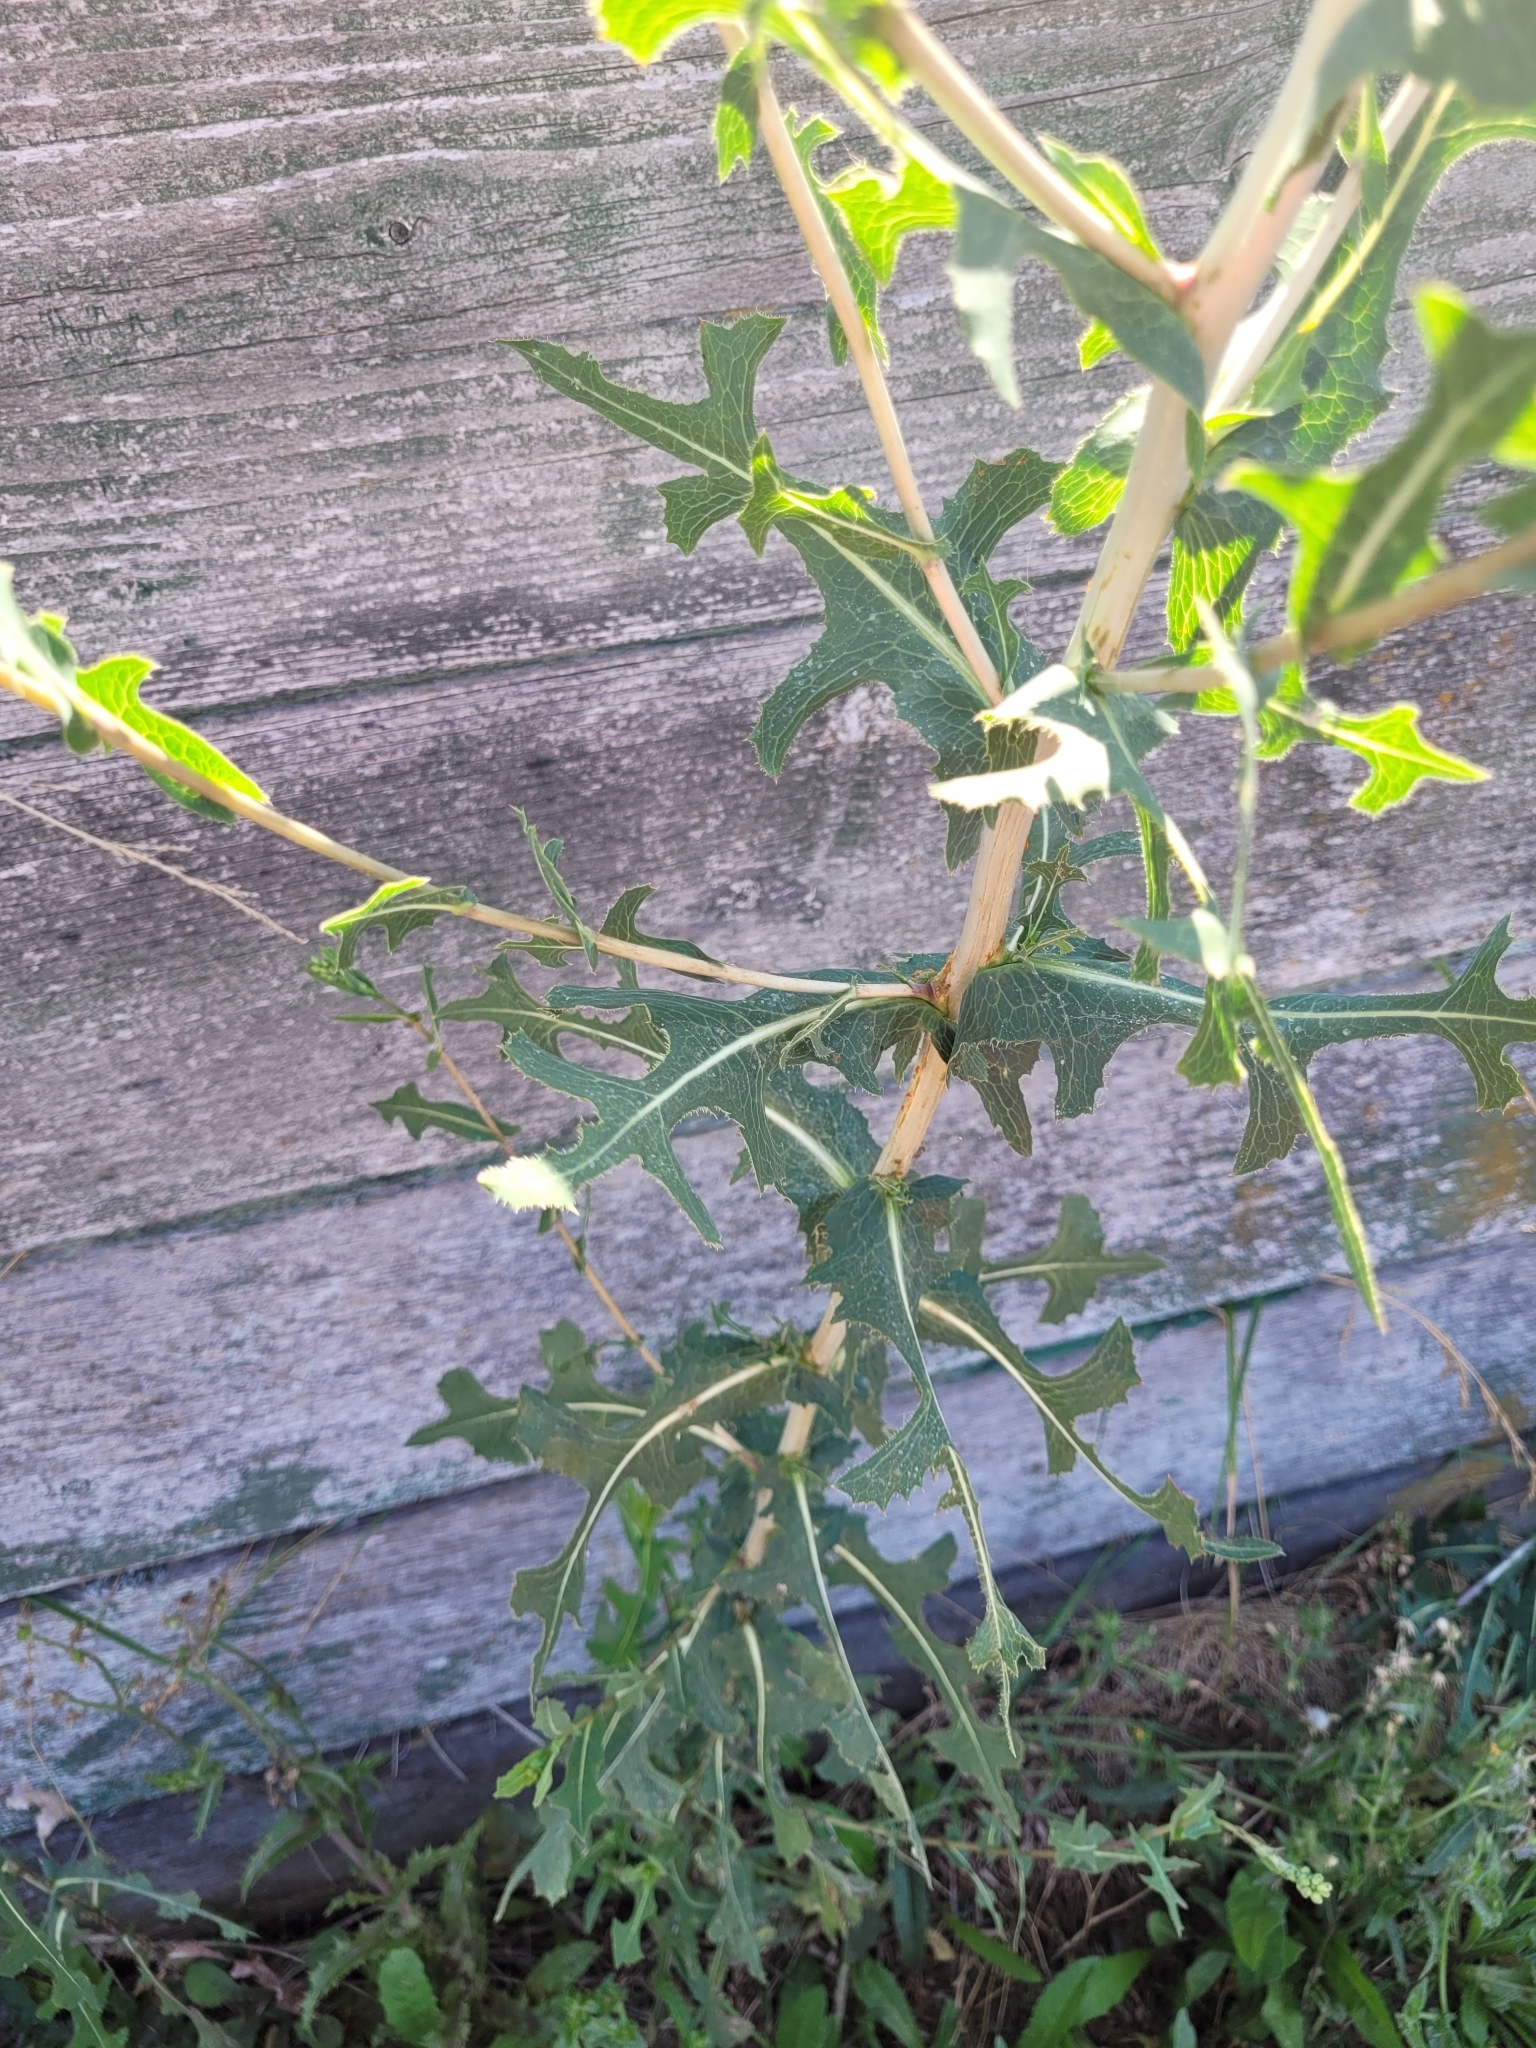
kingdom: Plantae
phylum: Tracheophyta
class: Magnoliopsida
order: Asterales
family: Asteraceae
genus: Lactuca
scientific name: Lactuca serriola
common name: Prickly lettuce
